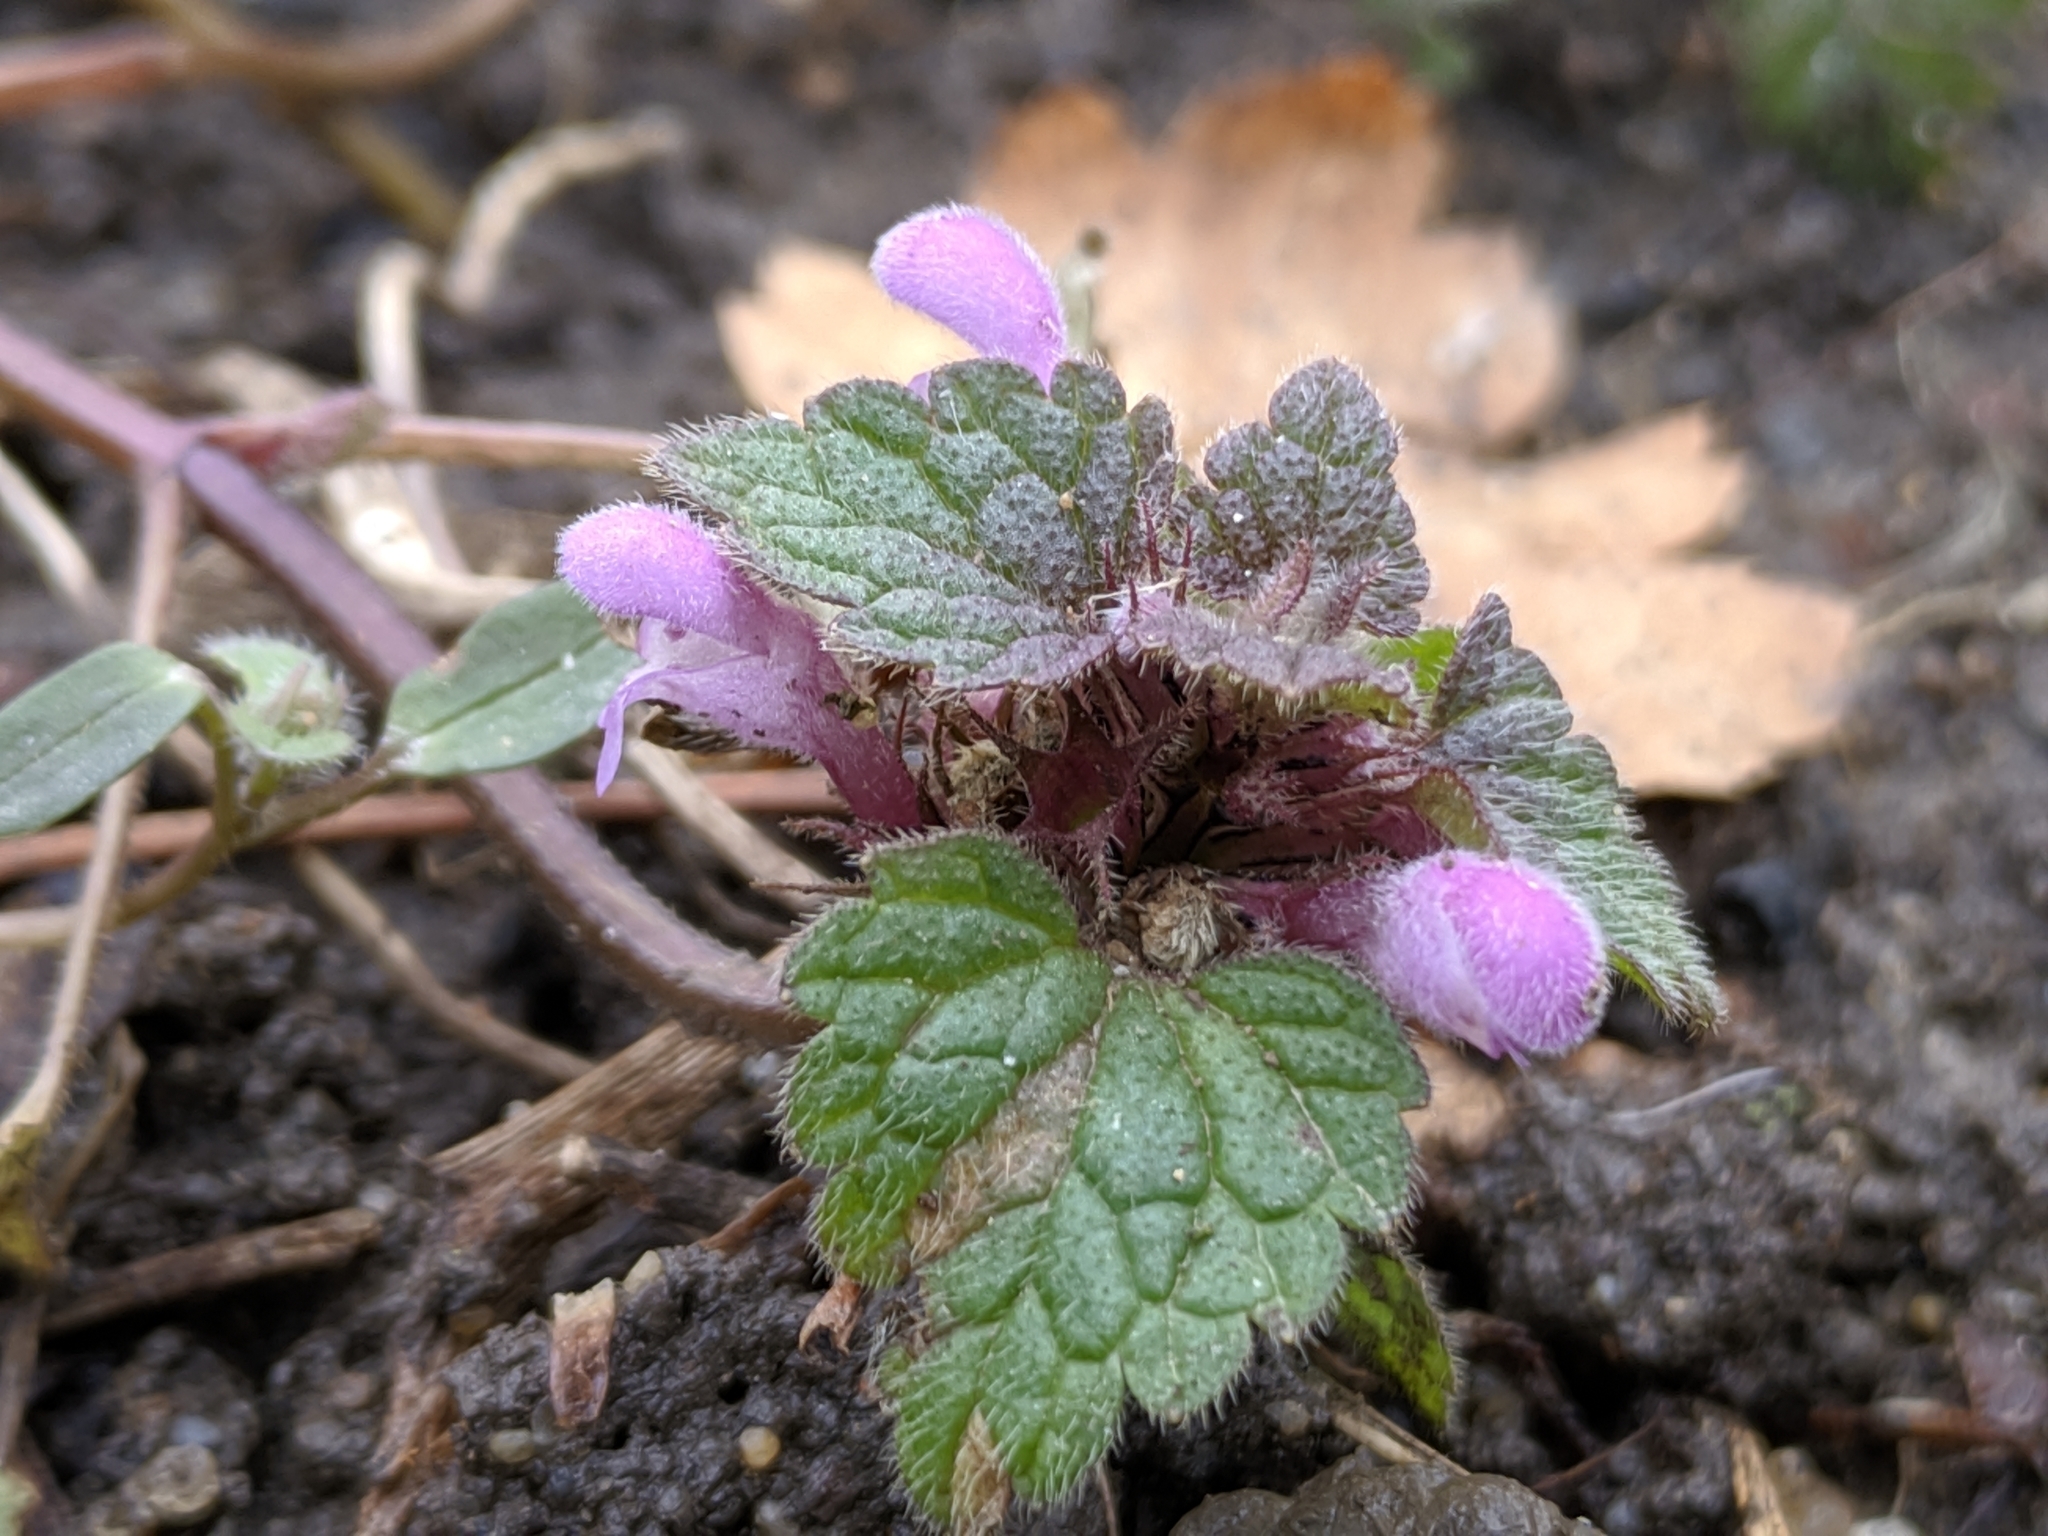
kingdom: Plantae
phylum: Tracheophyta
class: Magnoliopsida
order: Lamiales
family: Lamiaceae
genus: Lamium
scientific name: Lamium purpureum
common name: Red dead-nettle
